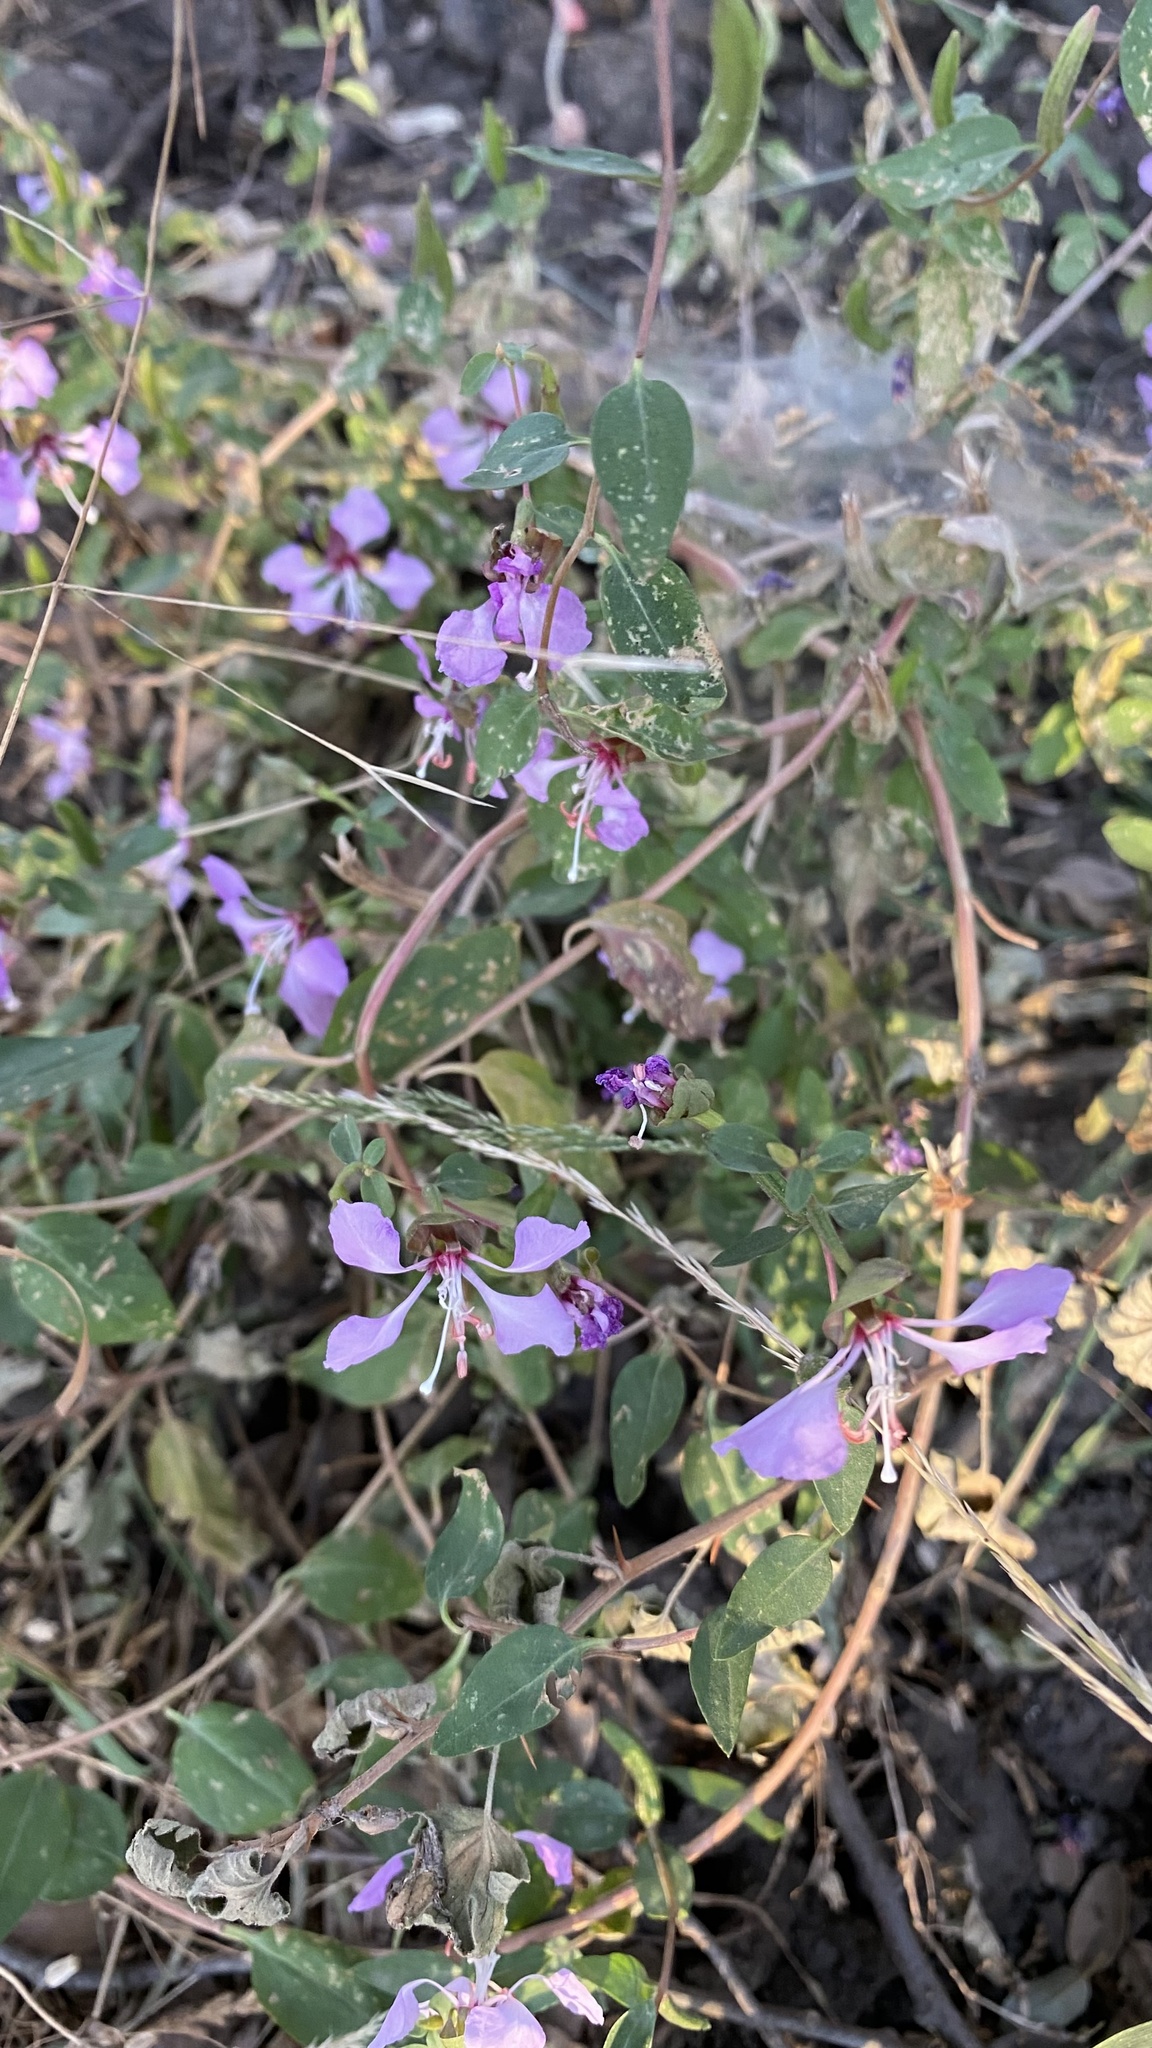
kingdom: Plantae
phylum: Tracheophyta
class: Magnoliopsida
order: Myrtales
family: Onagraceae
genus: Clarkia
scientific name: Clarkia unguiculata
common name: Clarkia
